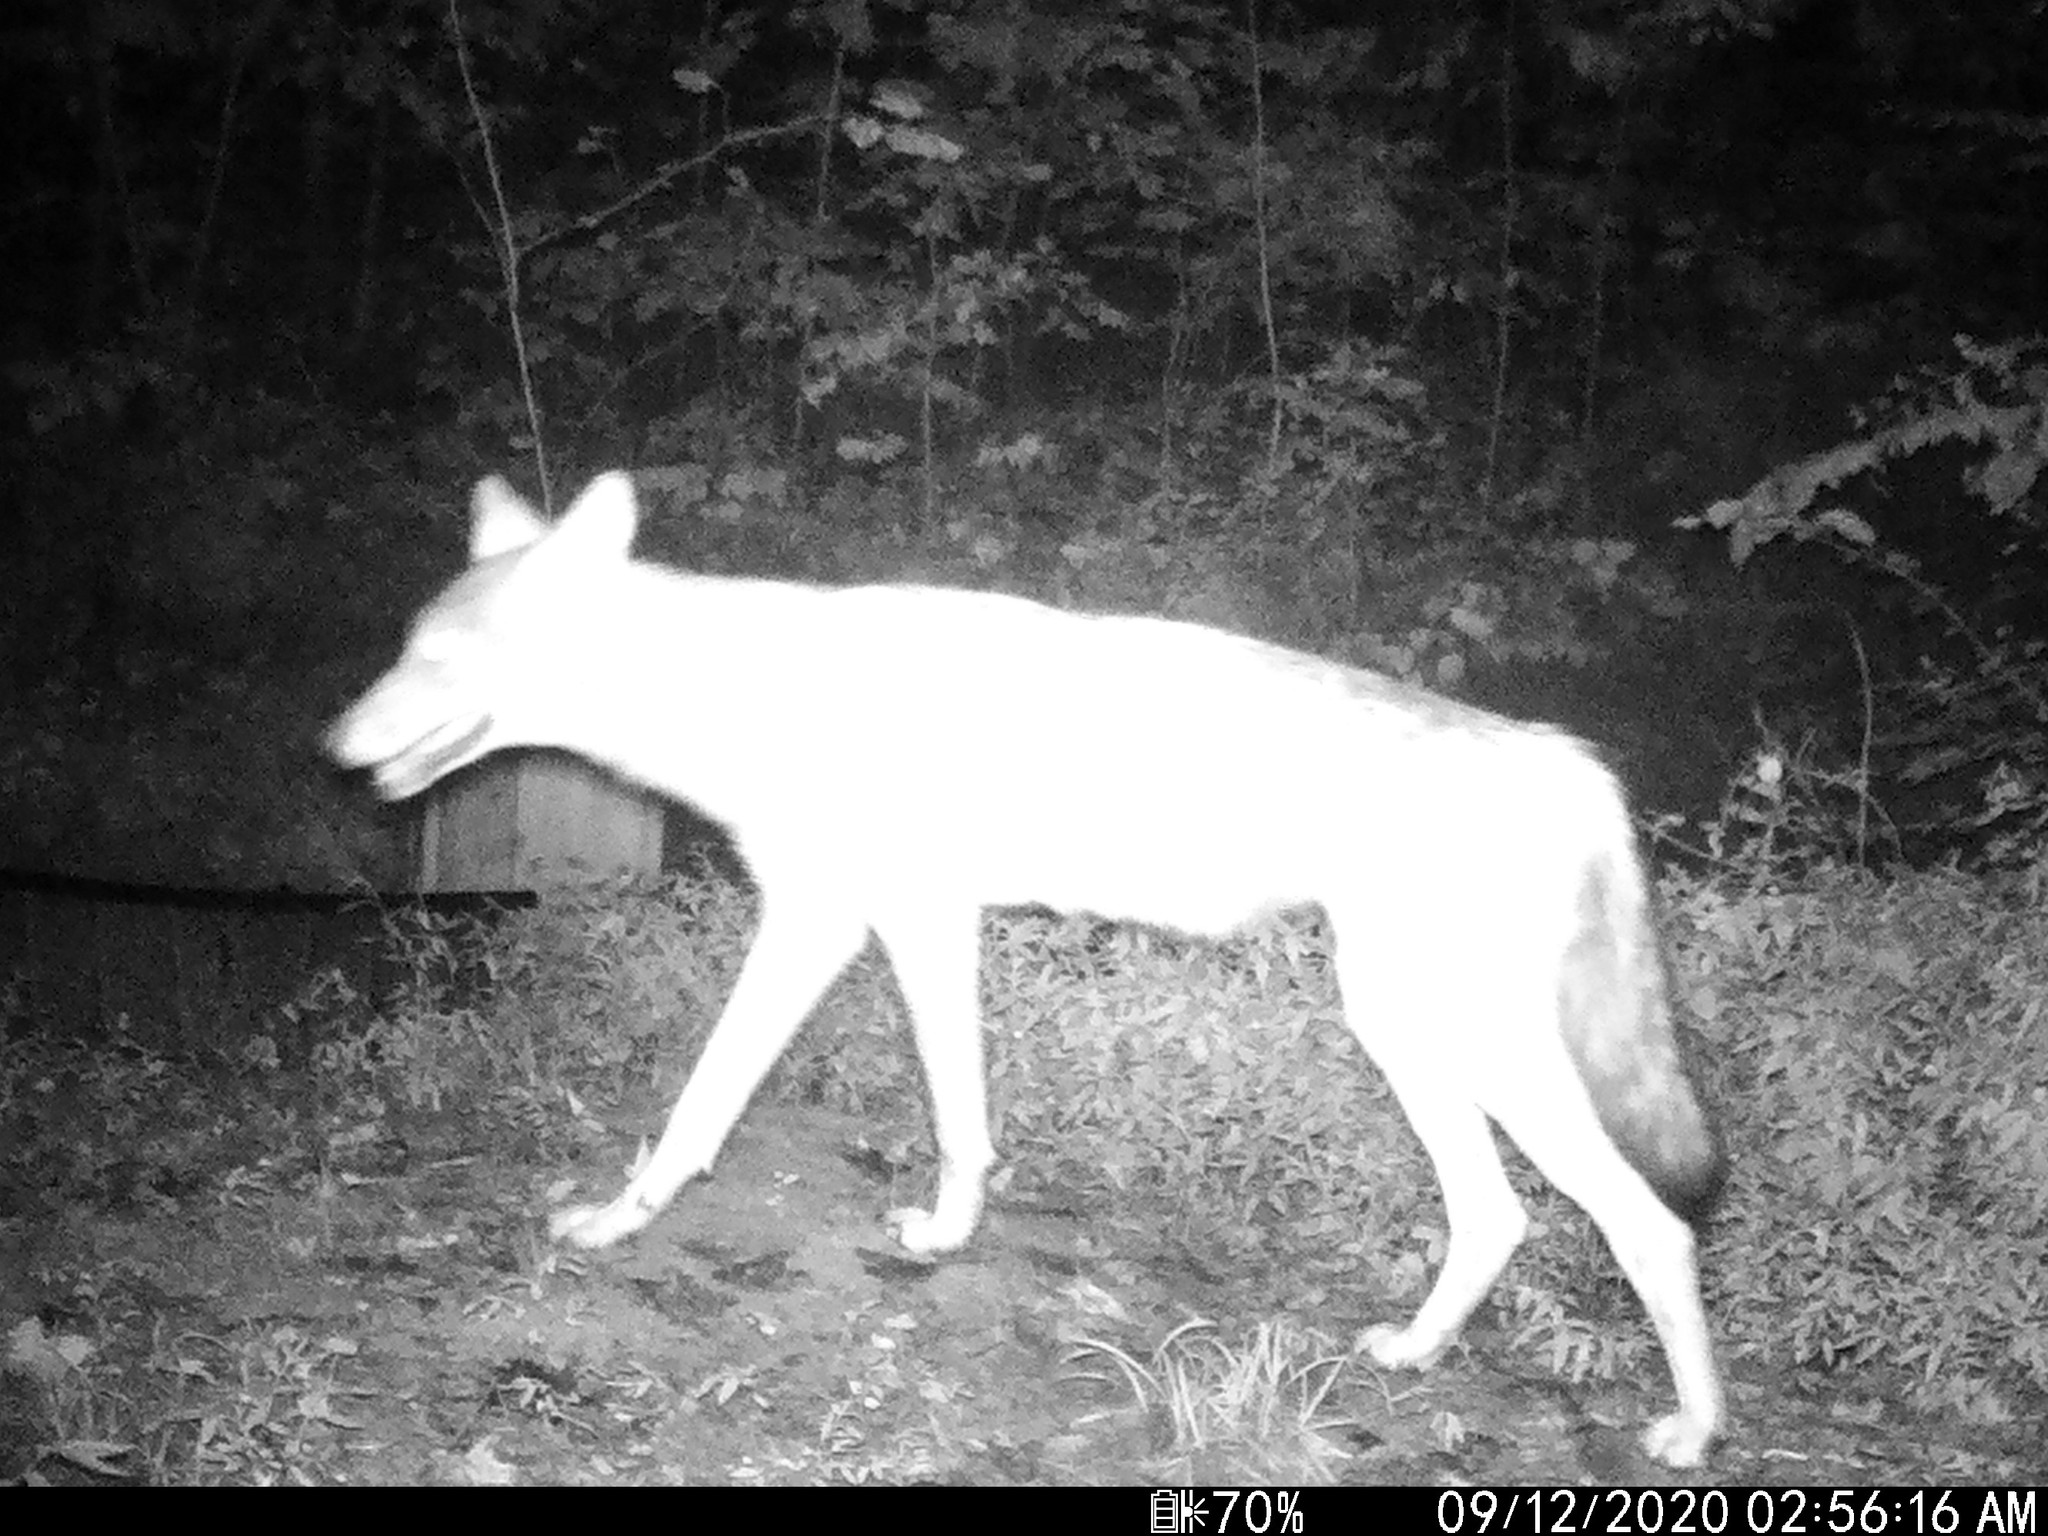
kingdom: Animalia
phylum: Chordata
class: Mammalia
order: Carnivora
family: Canidae
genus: Canis
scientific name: Canis latrans
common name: Coyote
